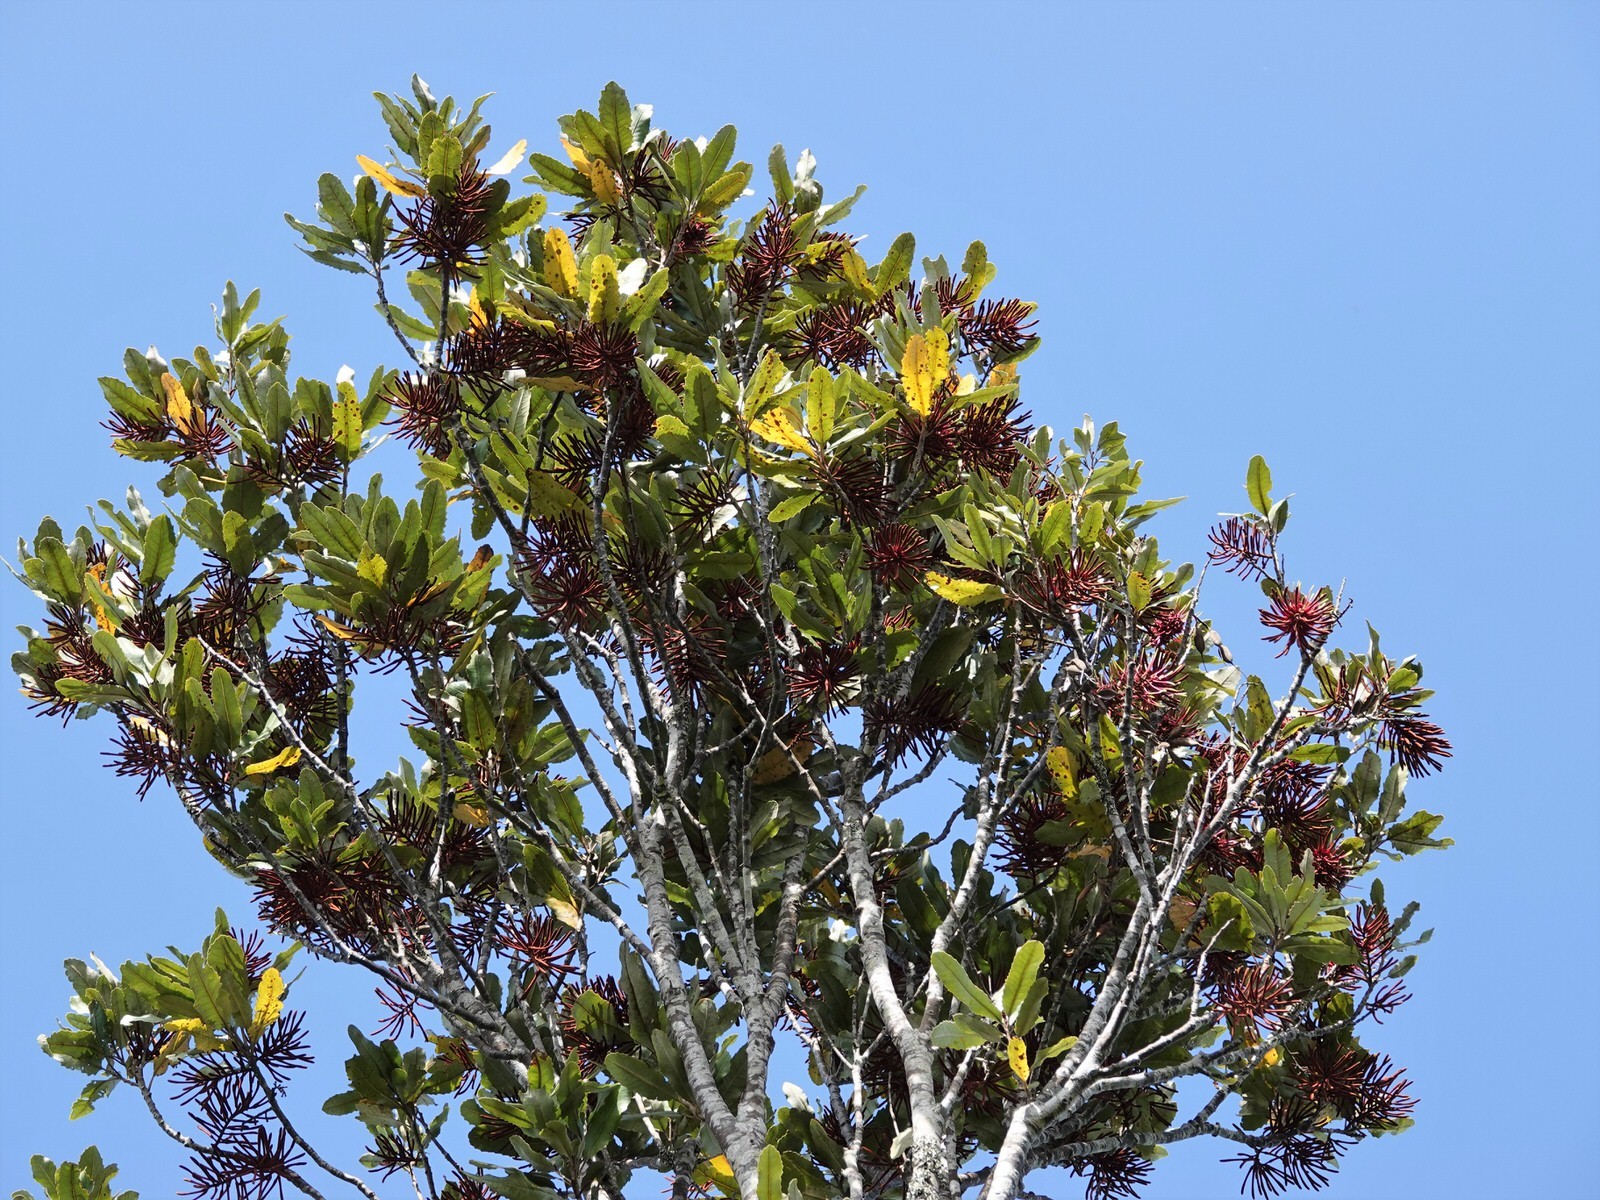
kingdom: Plantae
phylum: Tracheophyta
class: Magnoliopsida
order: Proteales
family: Proteaceae
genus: Knightia
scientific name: Knightia excelsa
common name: New zealand-honeysuckle
